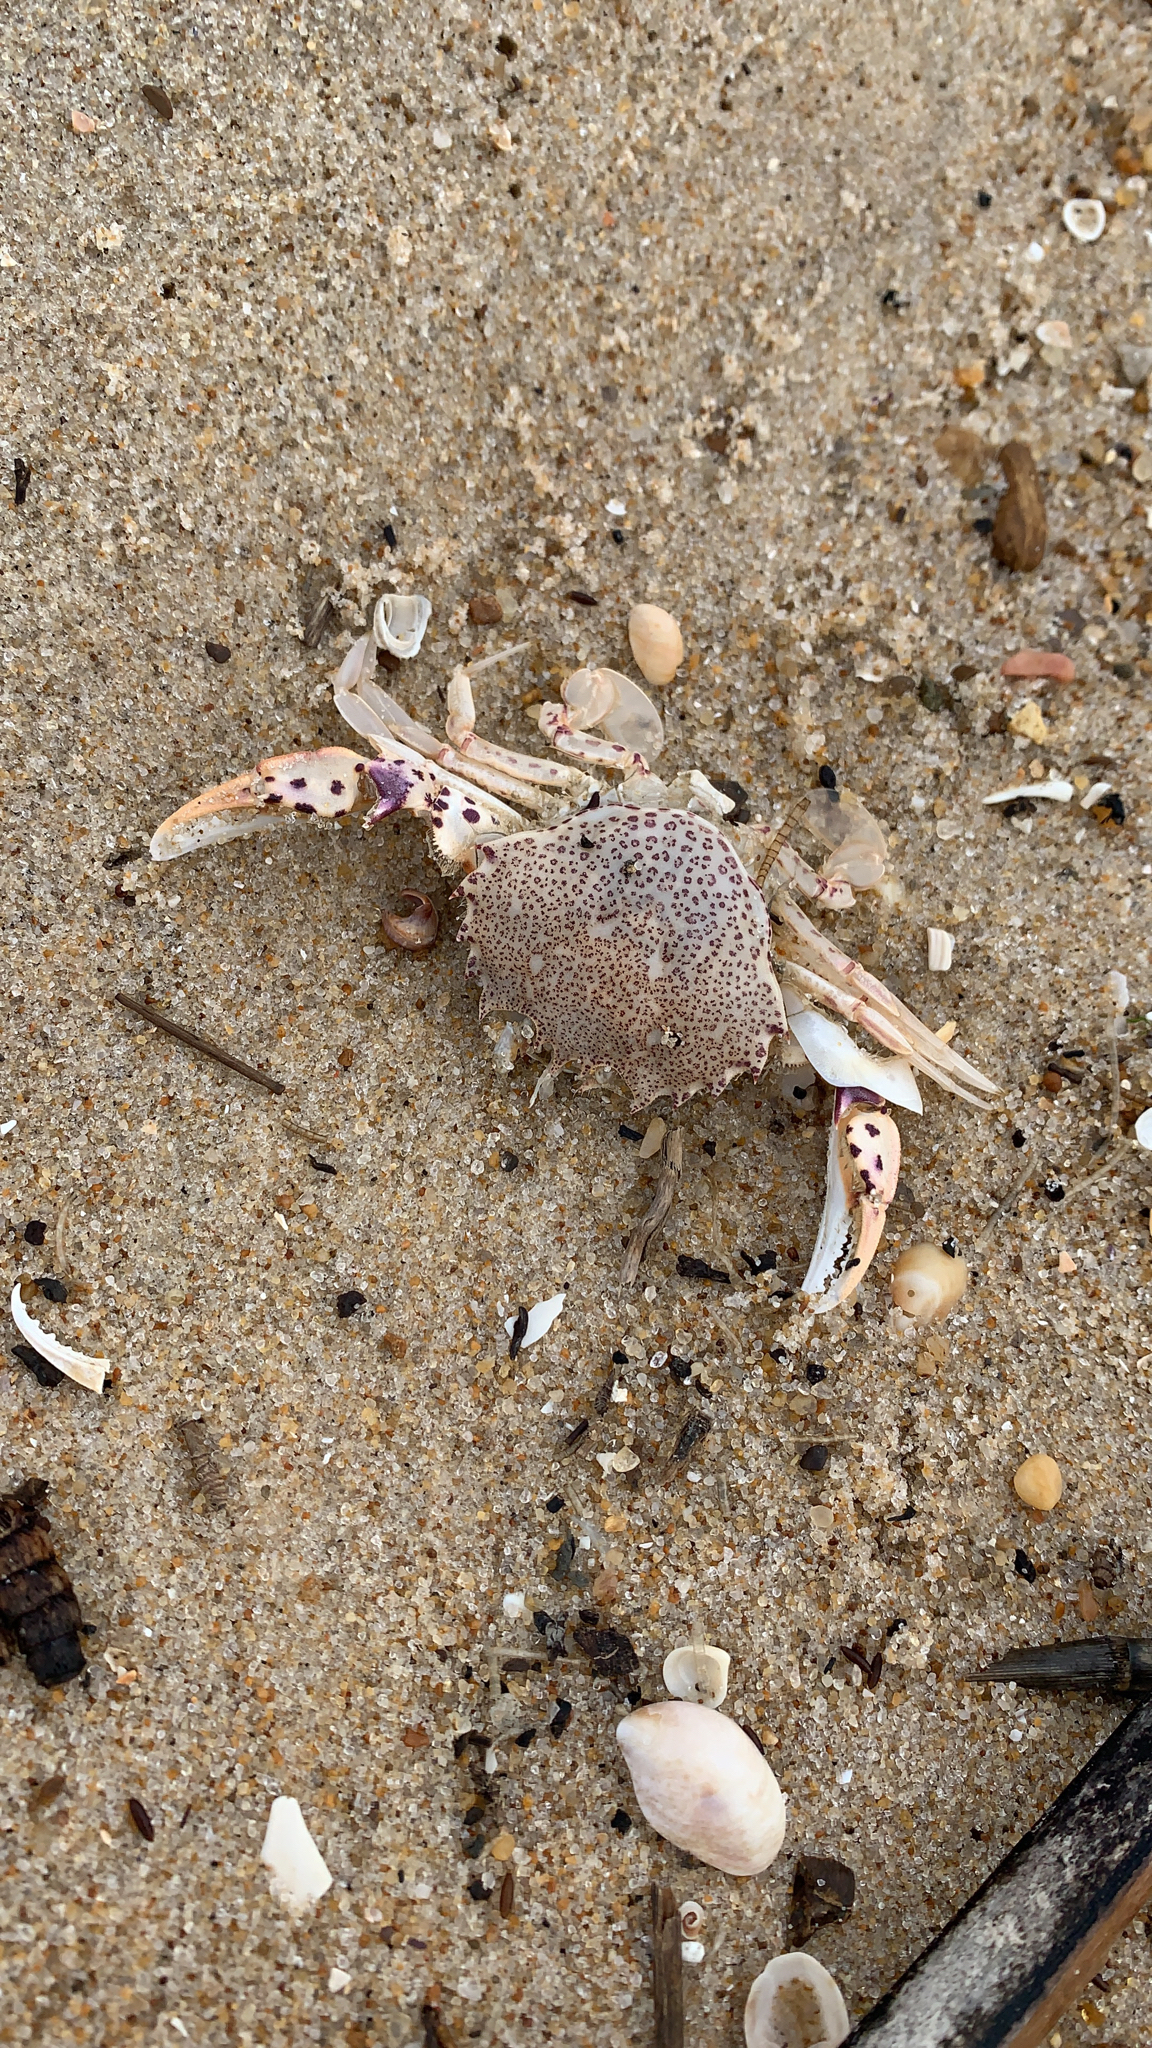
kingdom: Animalia
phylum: Arthropoda
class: Malacostraca
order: Decapoda
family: Ovalipidae
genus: Ovalipes
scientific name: Ovalipes ocellatus
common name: Lady crab
